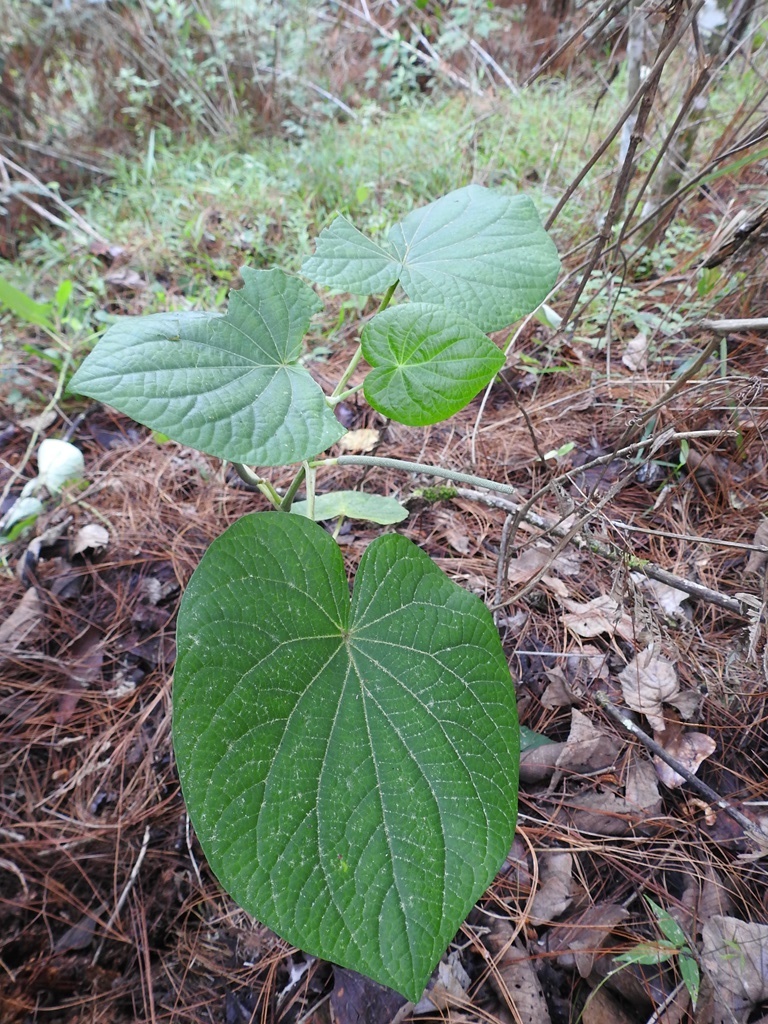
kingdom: Plantae
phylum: Tracheophyta
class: Magnoliopsida
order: Piperales
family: Piperaceae
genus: Piper
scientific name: Piper maxonii
